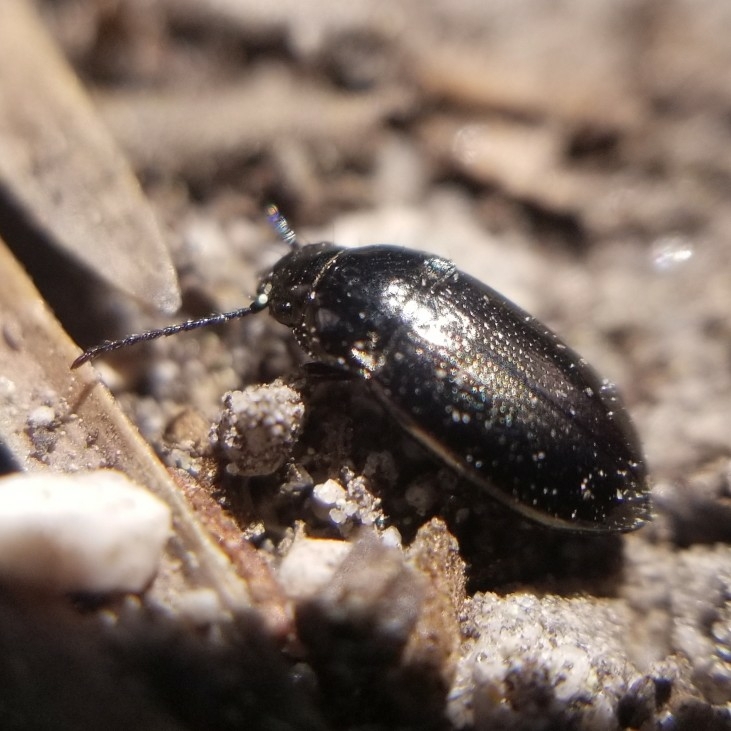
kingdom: Animalia
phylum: Arthropoda
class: Insecta
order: Coleoptera
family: Trachypachidae
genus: Trachypachus
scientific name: Trachypachus gibbsii
